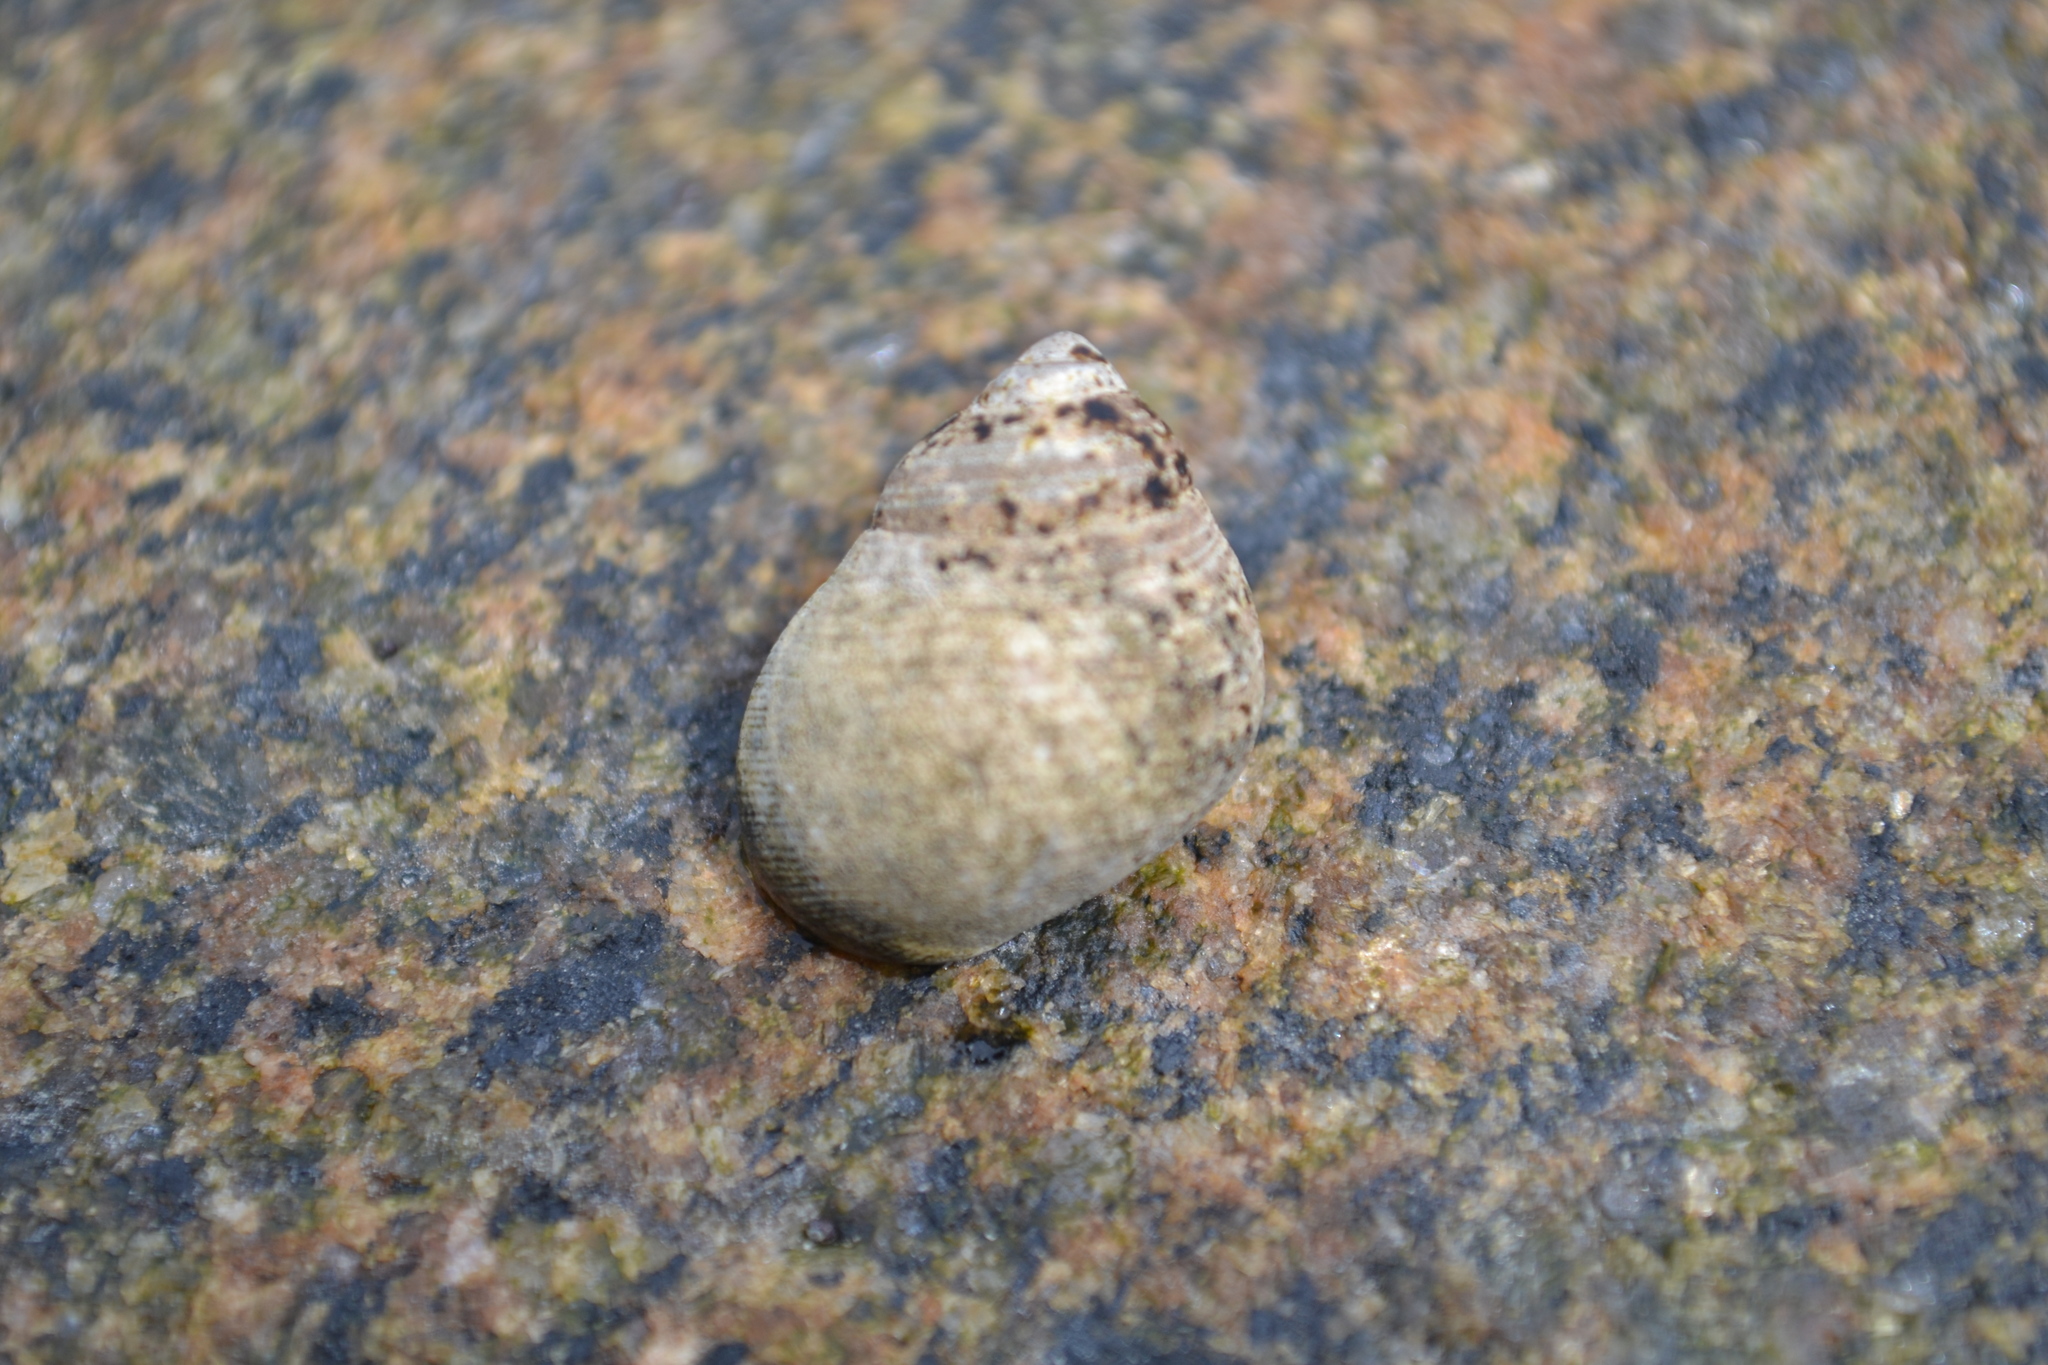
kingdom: Animalia
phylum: Mollusca
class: Gastropoda
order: Littorinimorpha
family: Littorinidae
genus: Littorina
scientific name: Littorina littorea
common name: Common periwinkle
